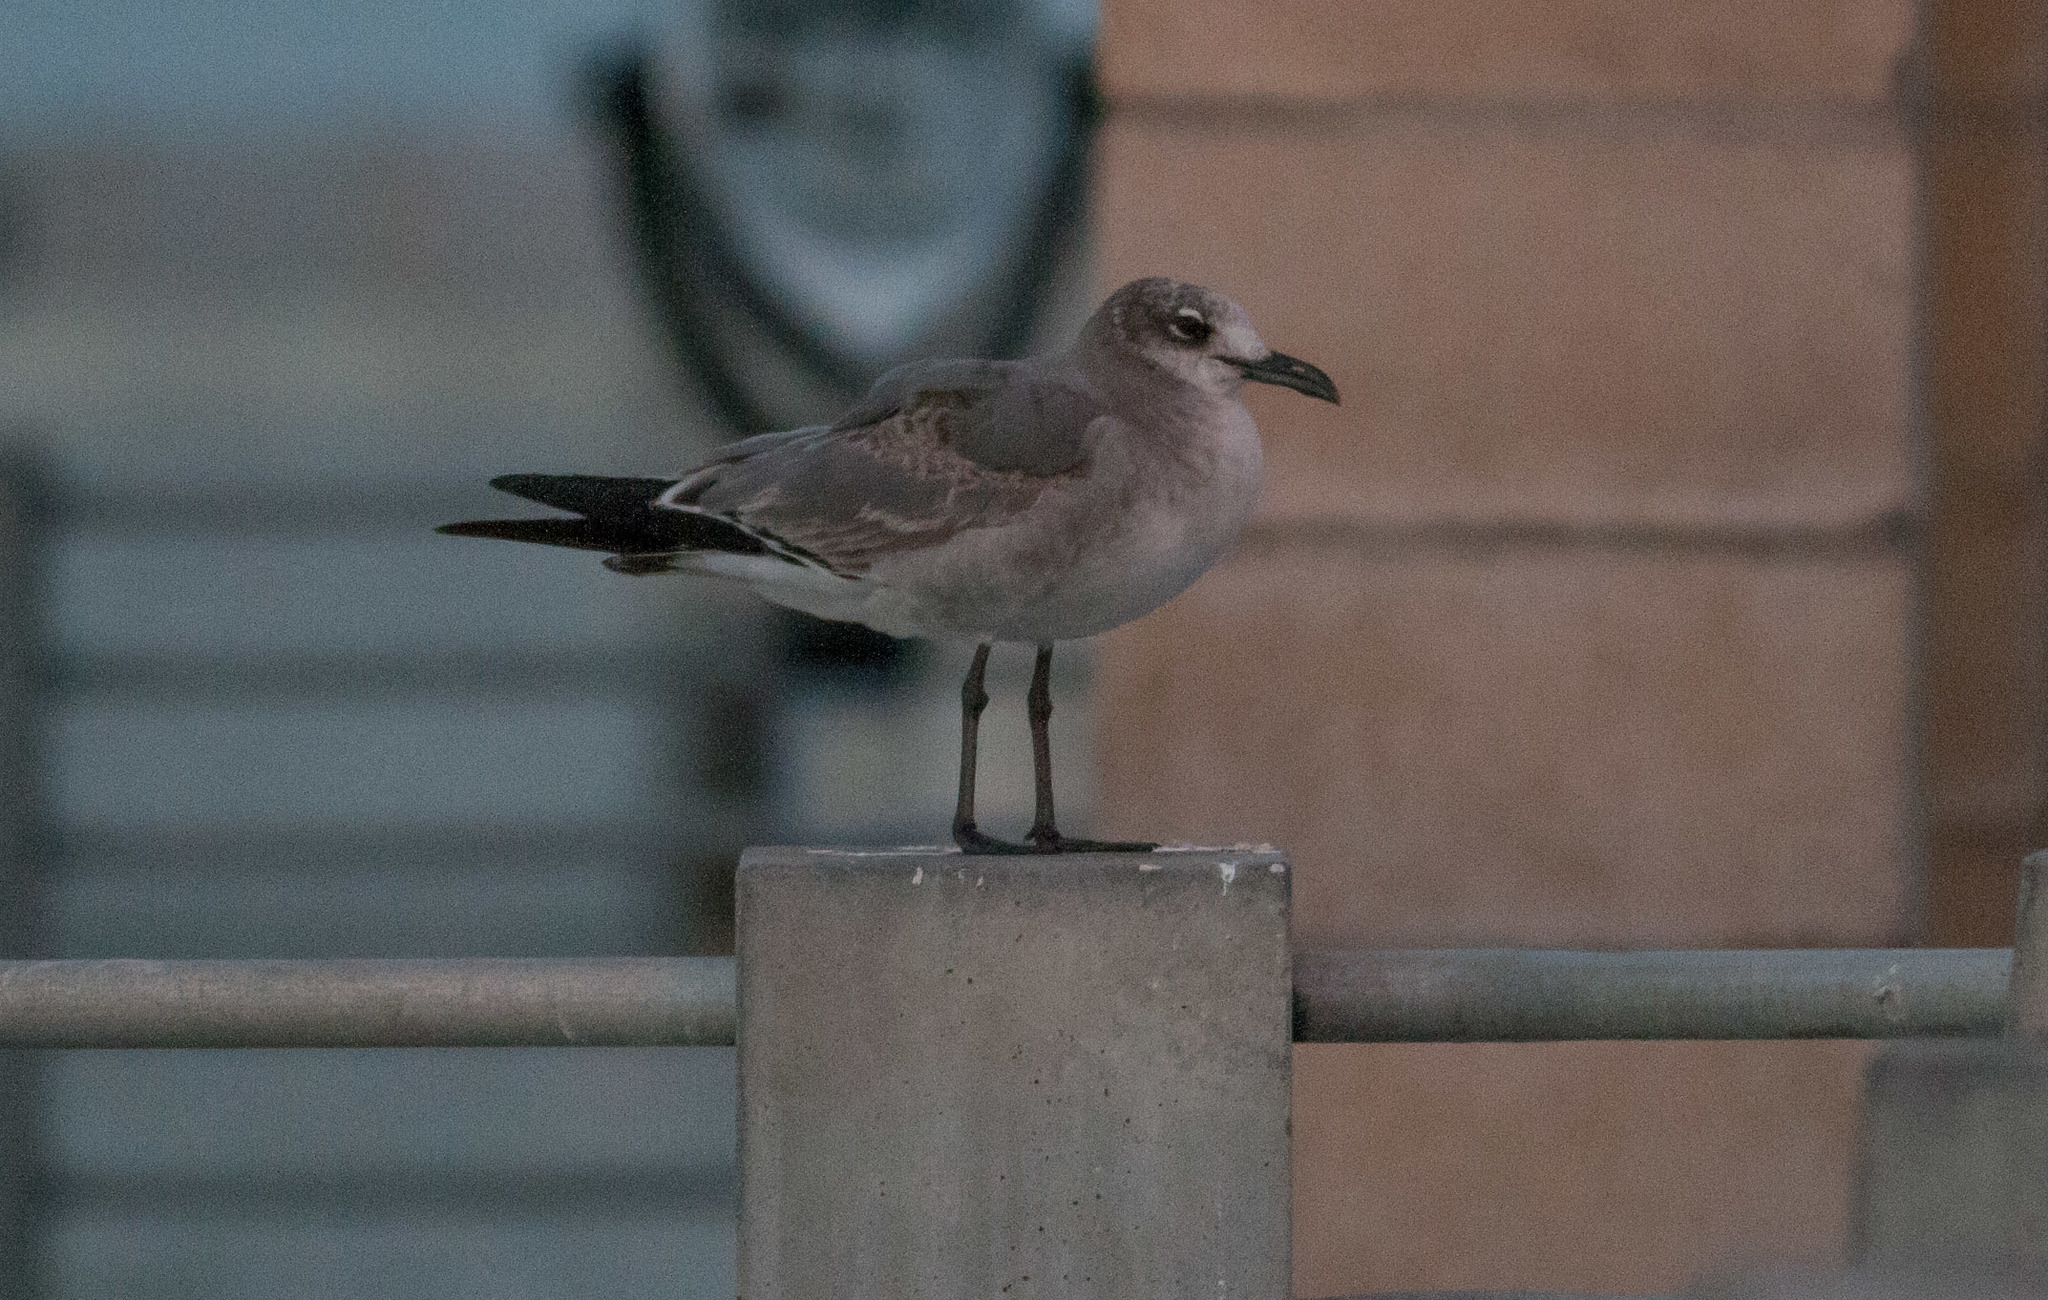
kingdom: Animalia
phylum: Chordata
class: Aves
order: Charadriiformes
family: Laridae
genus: Leucophaeus
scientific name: Leucophaeus atricilla
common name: Laughing gull
